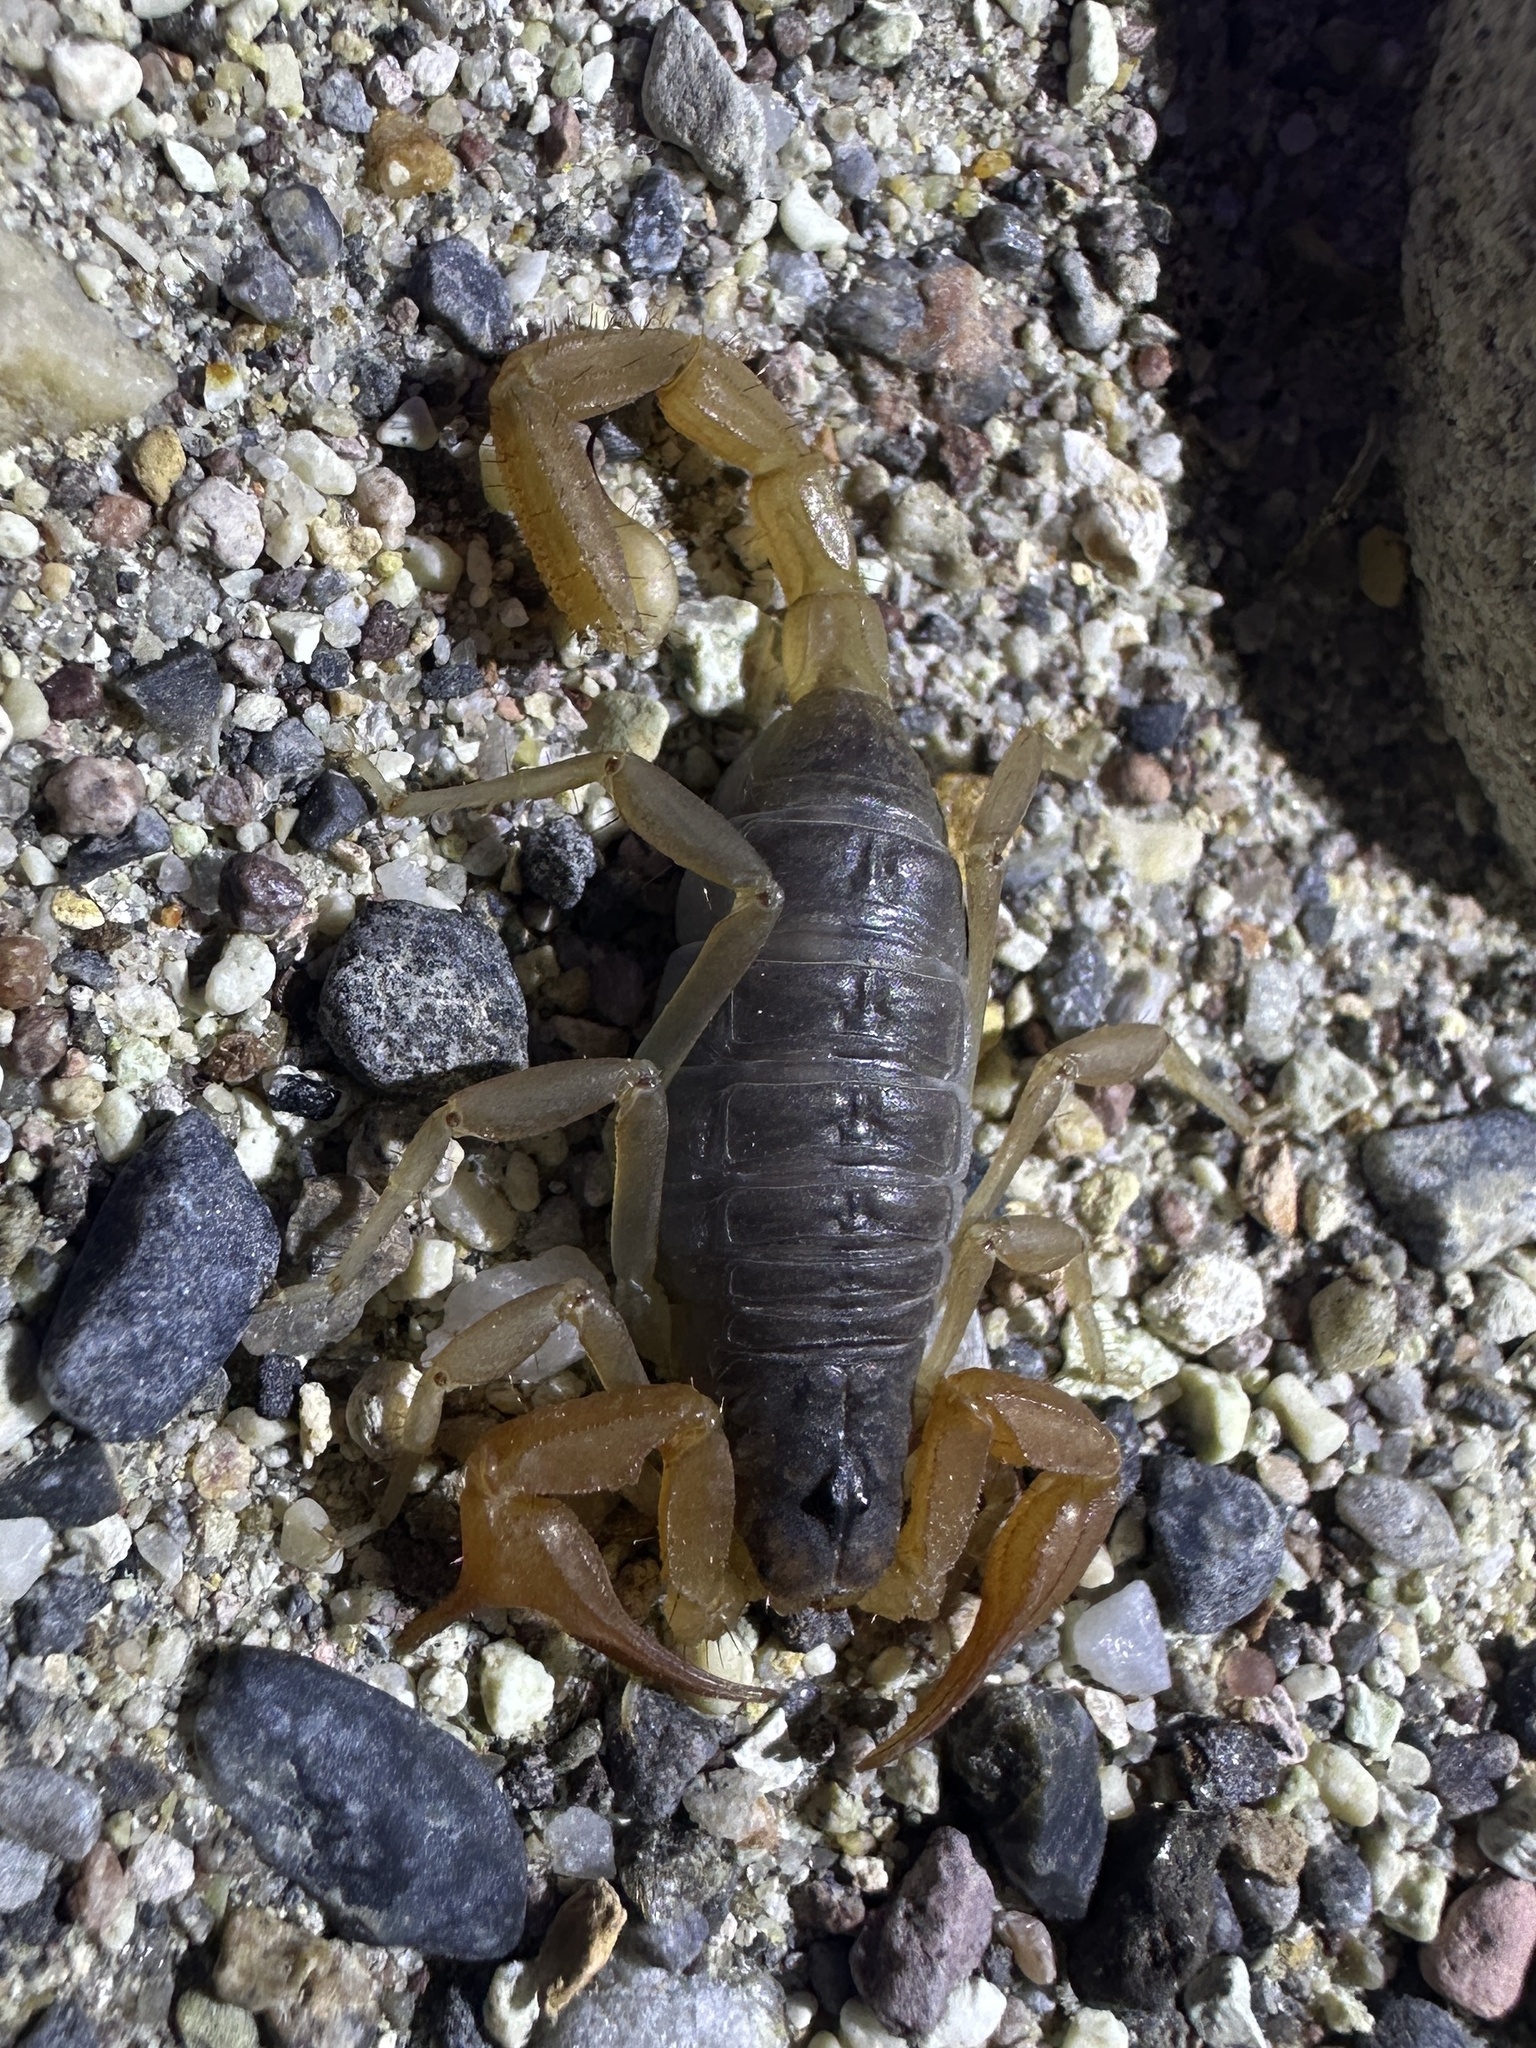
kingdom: Animalia
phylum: Arthropoda
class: Arachnida
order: Scorpiones
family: Vaejovidae
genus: Smeringurus
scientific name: Smeringurus vachoni
